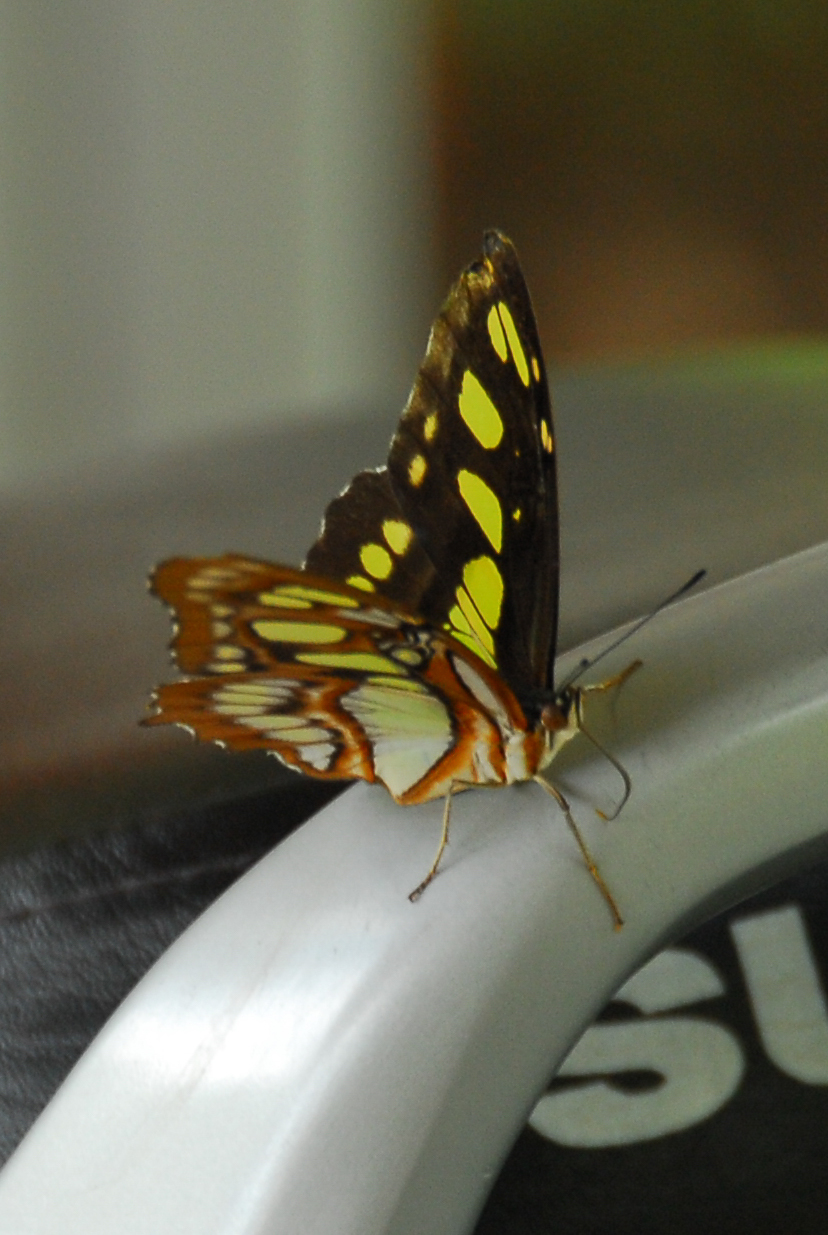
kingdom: Animalia
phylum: Arthropoda
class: Insecta
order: Lepidoptera
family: Nymphalidae
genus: Siproeta
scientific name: Siproeta stelenes
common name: Malachite
